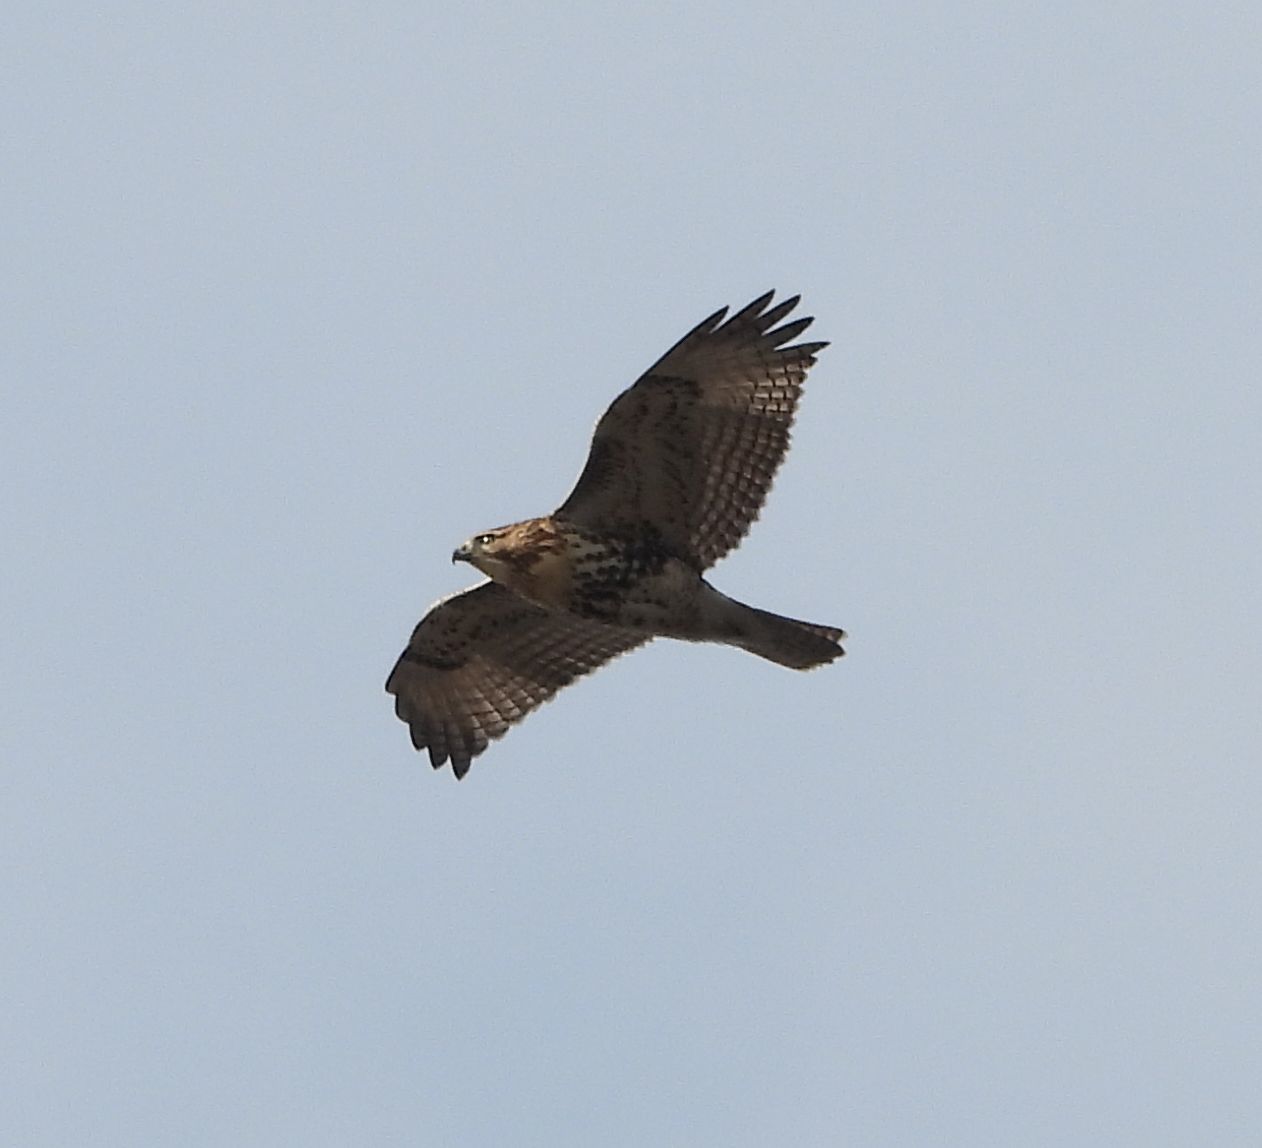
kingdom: Animalia
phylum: Chordata
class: Aves
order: Accipitriformes
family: Accipitridae
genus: Buteo
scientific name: Buteo jamaicensis
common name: Red-tailed hawk
